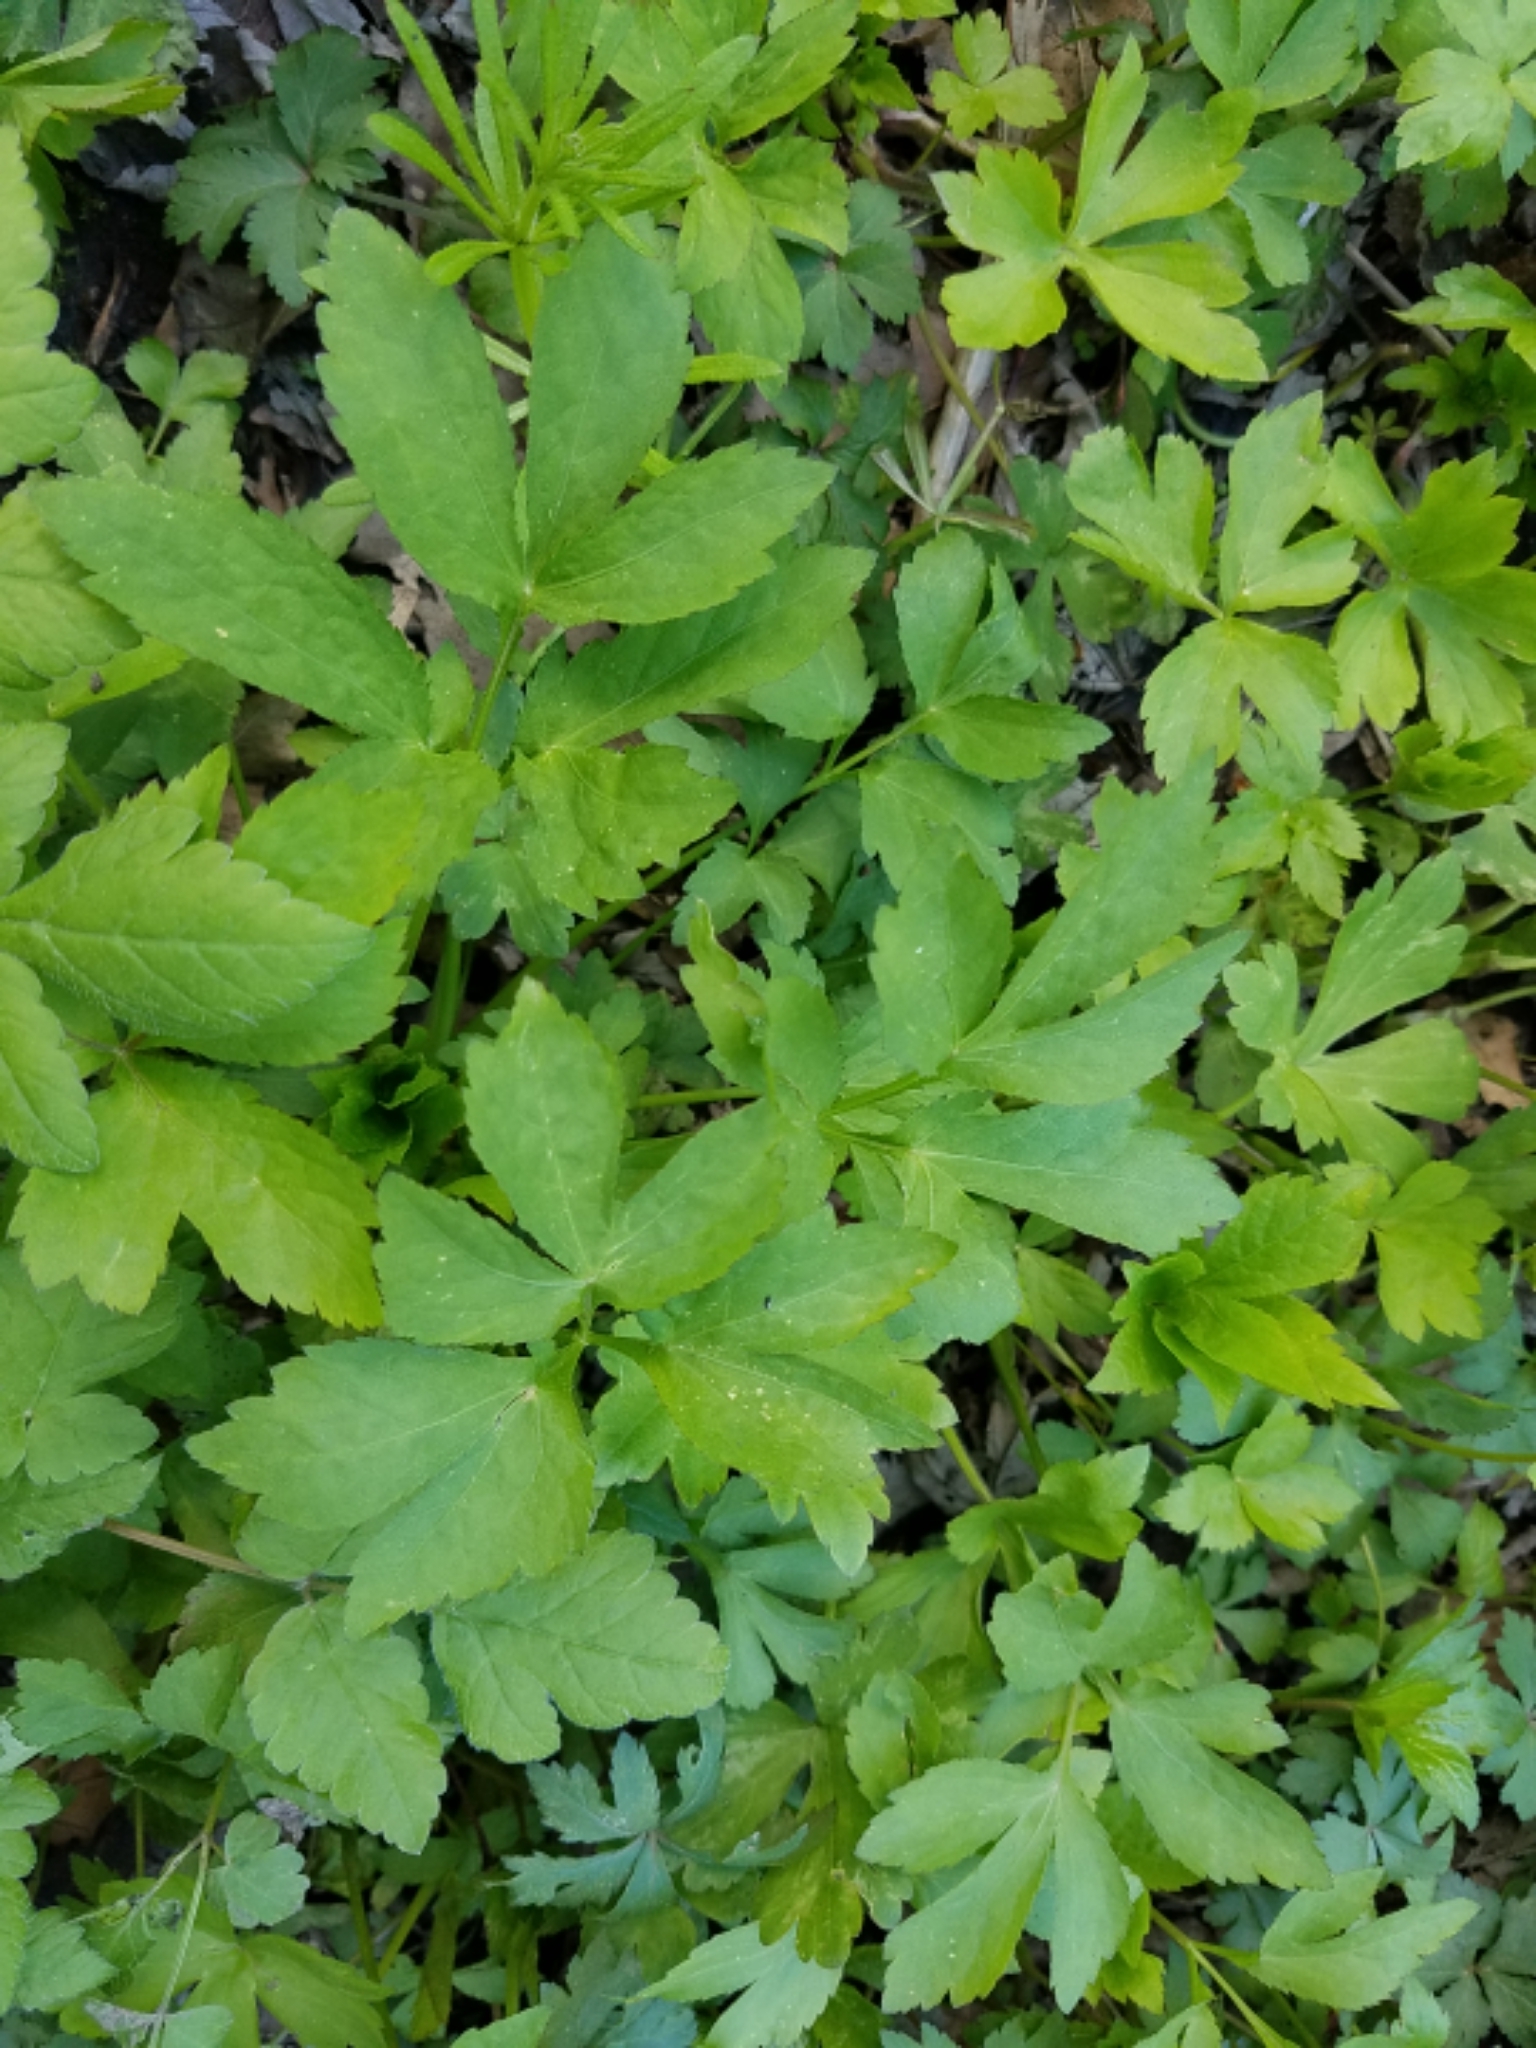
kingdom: Plantae
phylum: Tracheophyta
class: Magnoliopsida
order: Apiales
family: Apiaceae
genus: Cryptotaenia
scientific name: Cryptotaenia canadensis
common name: Honewort
